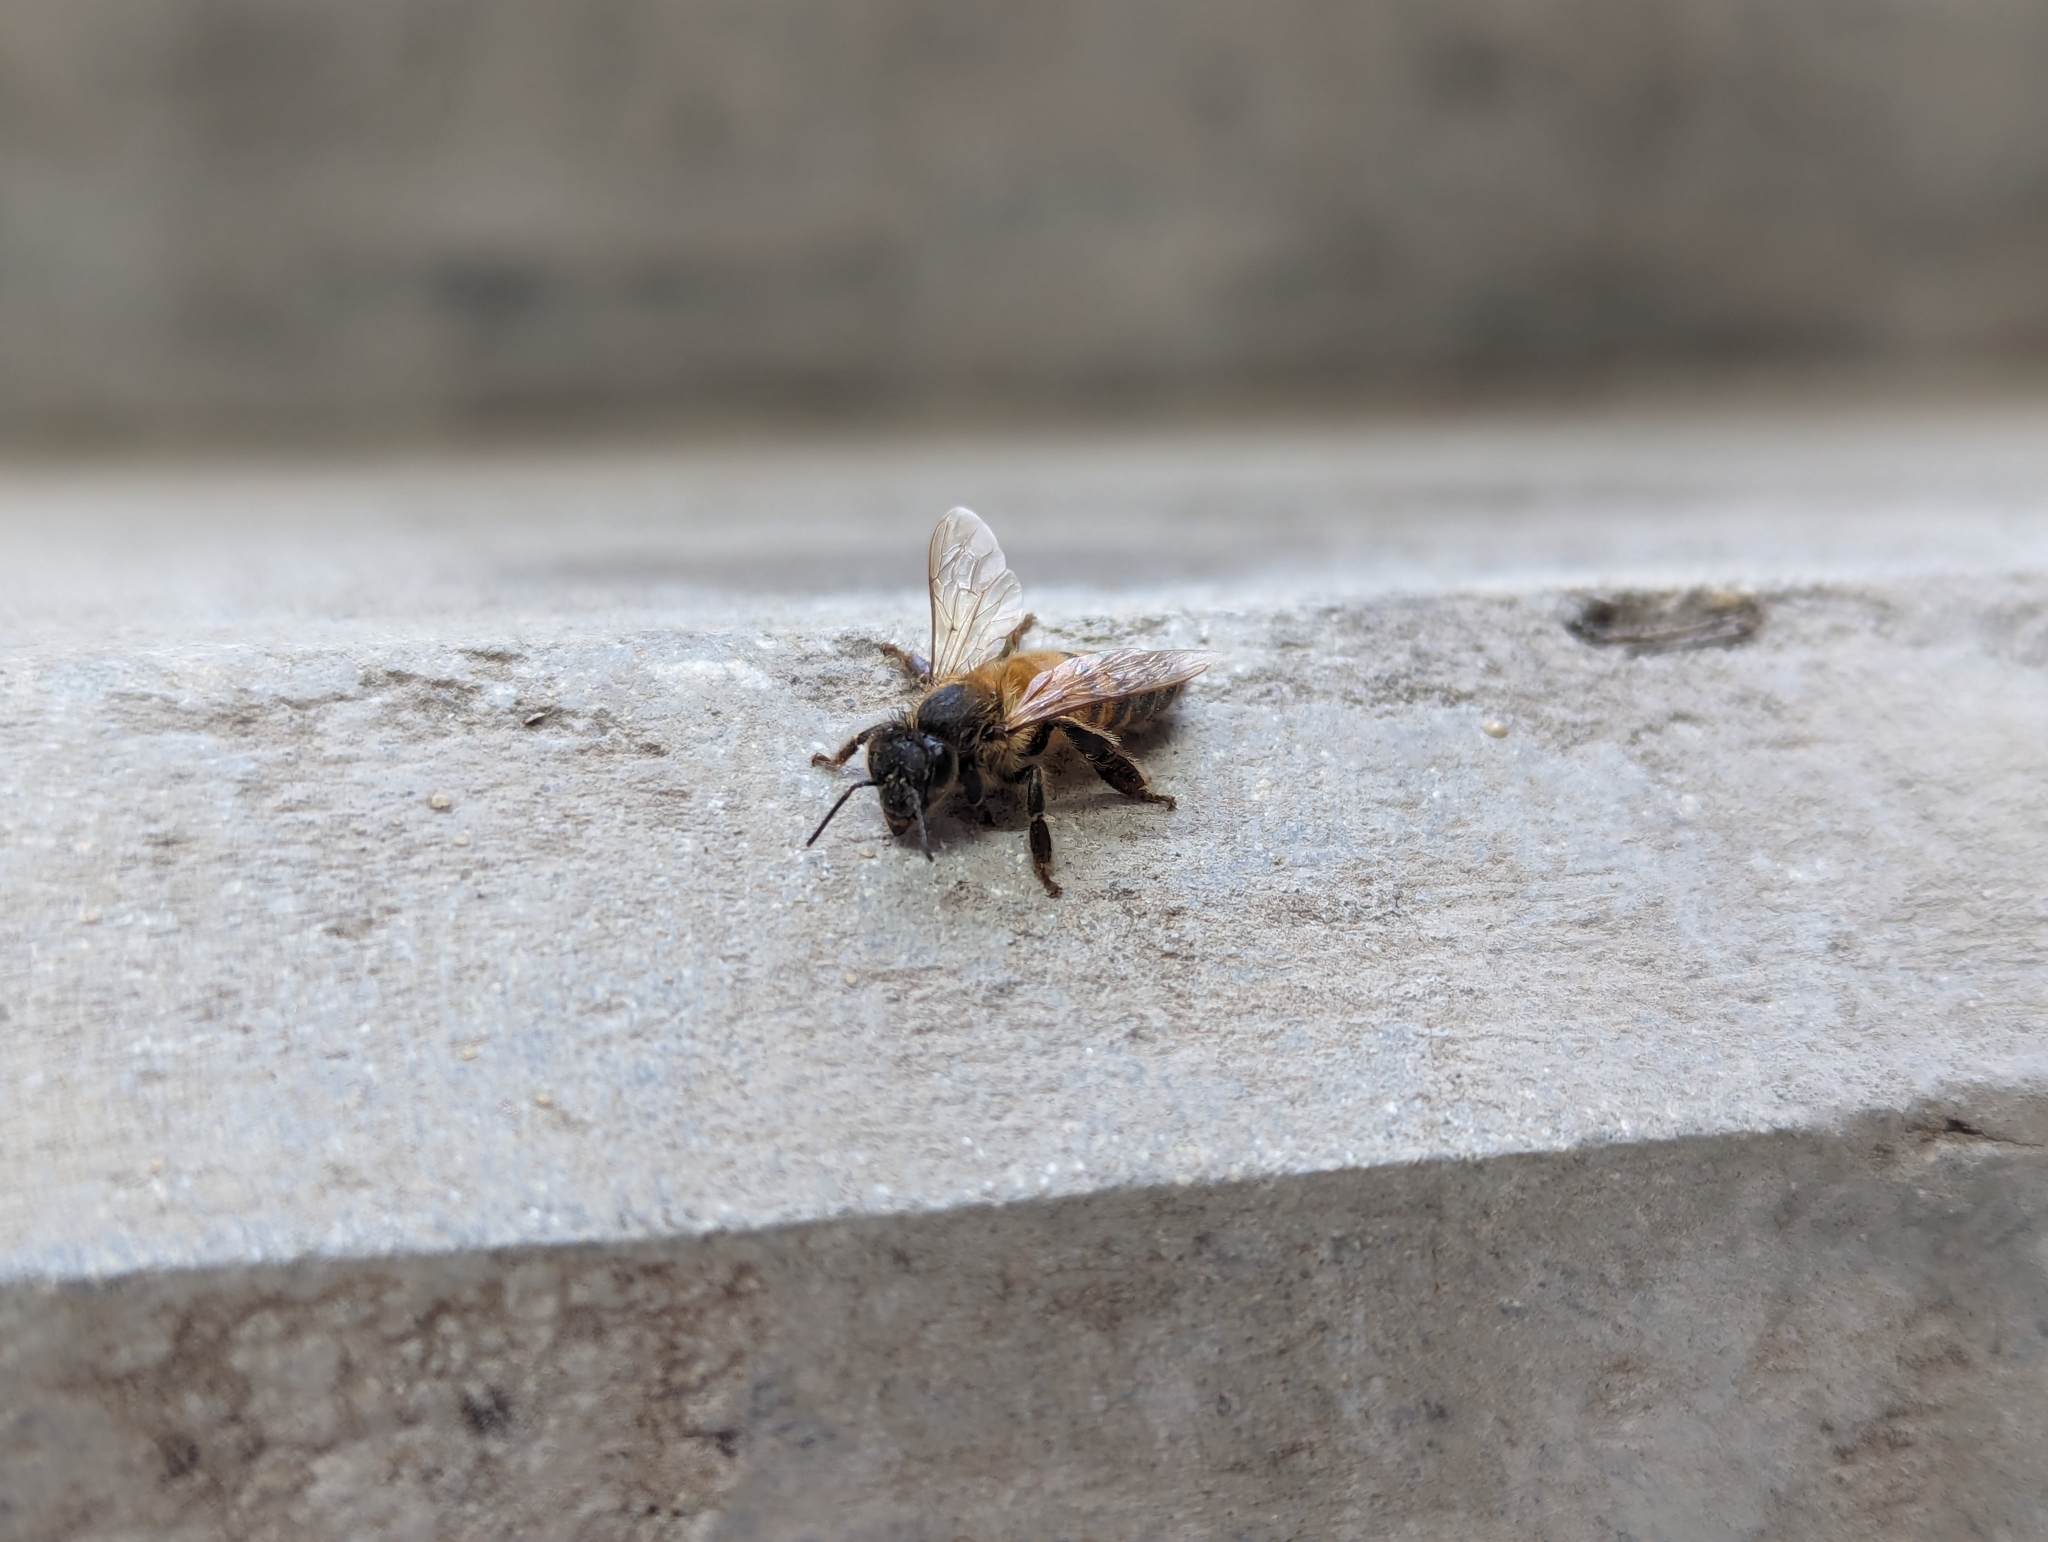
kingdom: Animalia
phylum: Arthropoda
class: Insecta
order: Hymenoptera
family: Apidae
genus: Apis
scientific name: Apis mellifera
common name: Honey bee
